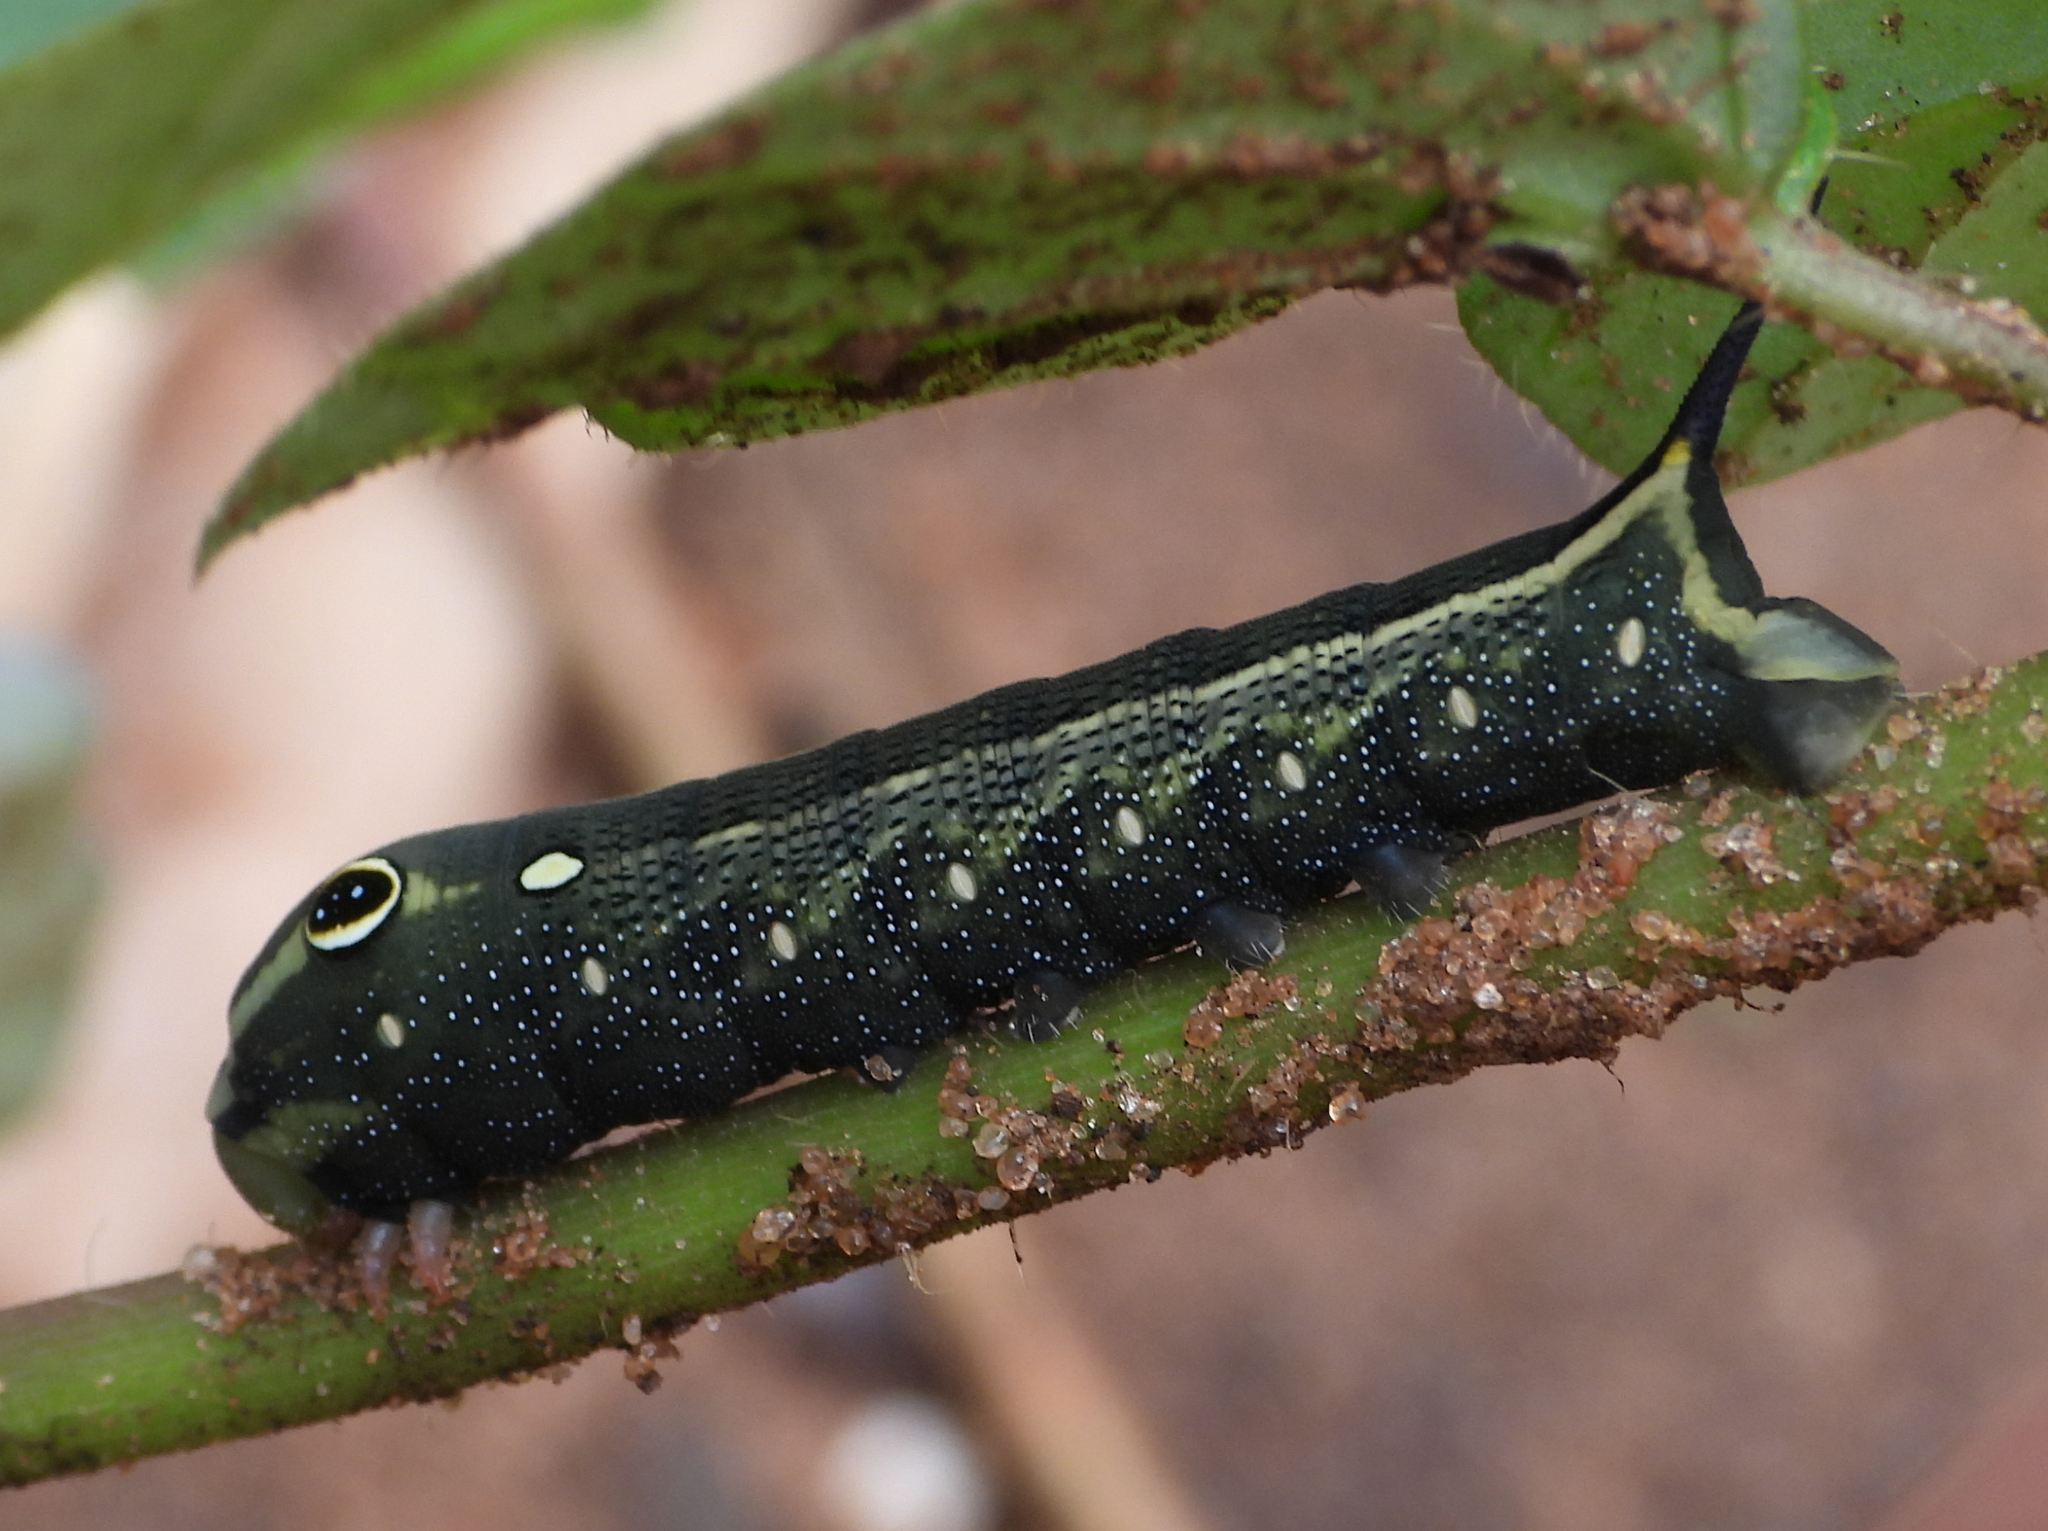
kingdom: Animalia
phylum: Arthropoda
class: Insecta
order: Lepidoptera
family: Sphingidae
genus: Hippotion
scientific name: Hippotion celerio
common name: Silver-striped hawk-moth
